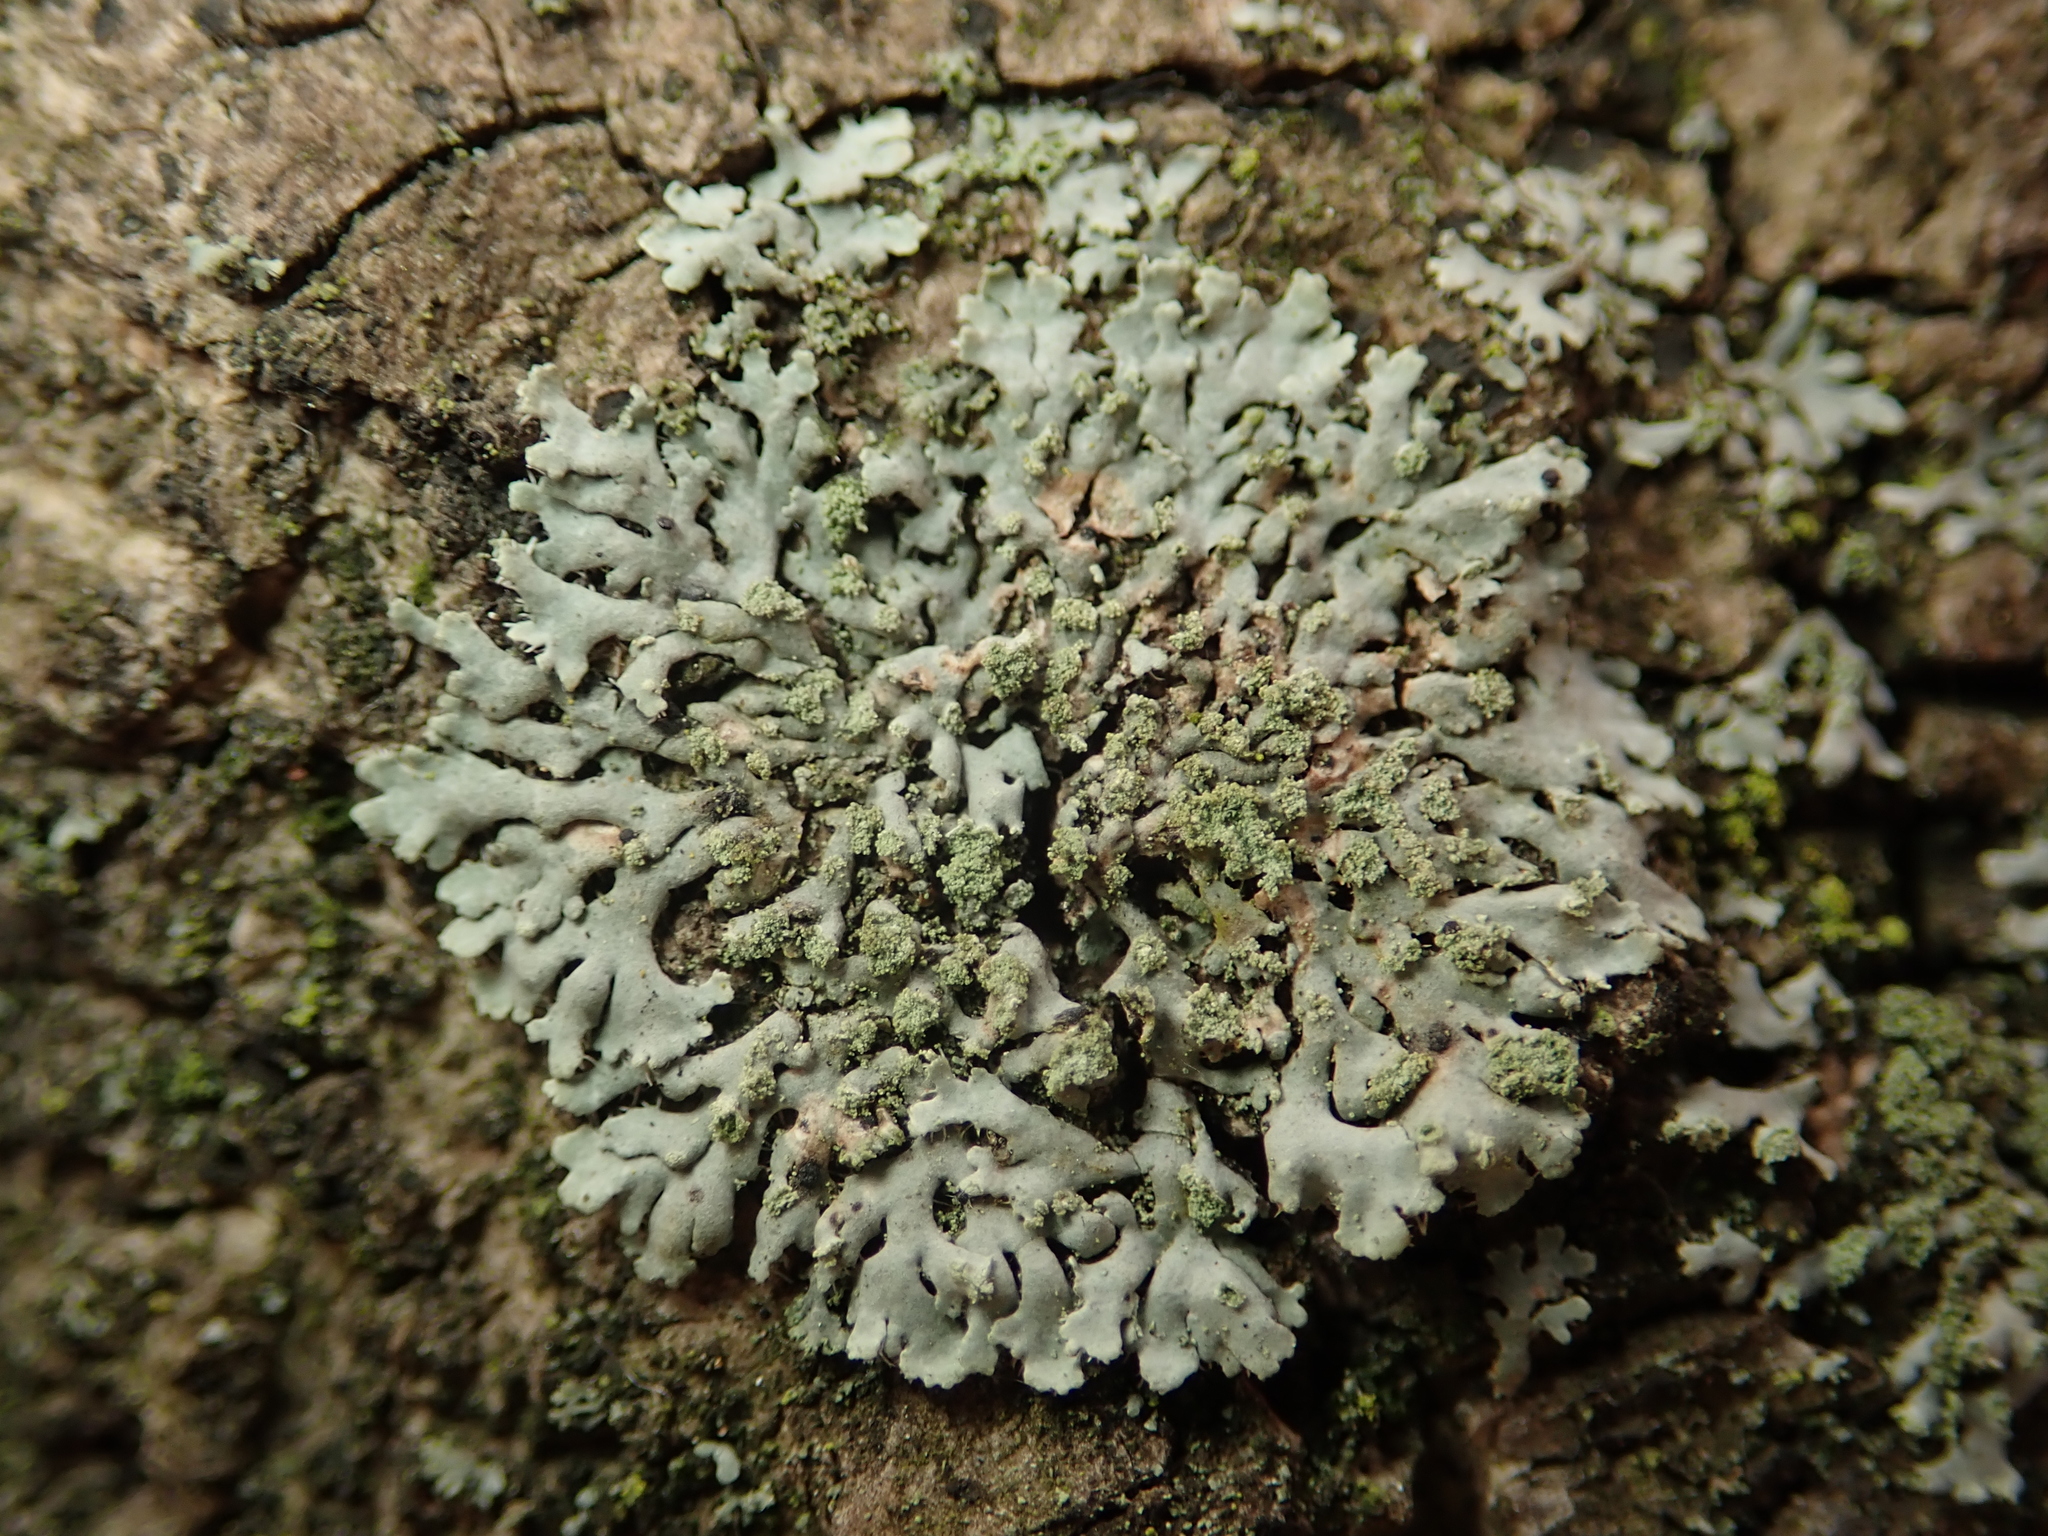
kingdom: Fungi
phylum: Ascomycota
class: Lecanoromycetes
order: Caliciales
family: Physciaceae
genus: Phaeophyscia
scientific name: Phaeophyscia orbicularis
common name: Mealy shadow lichen
